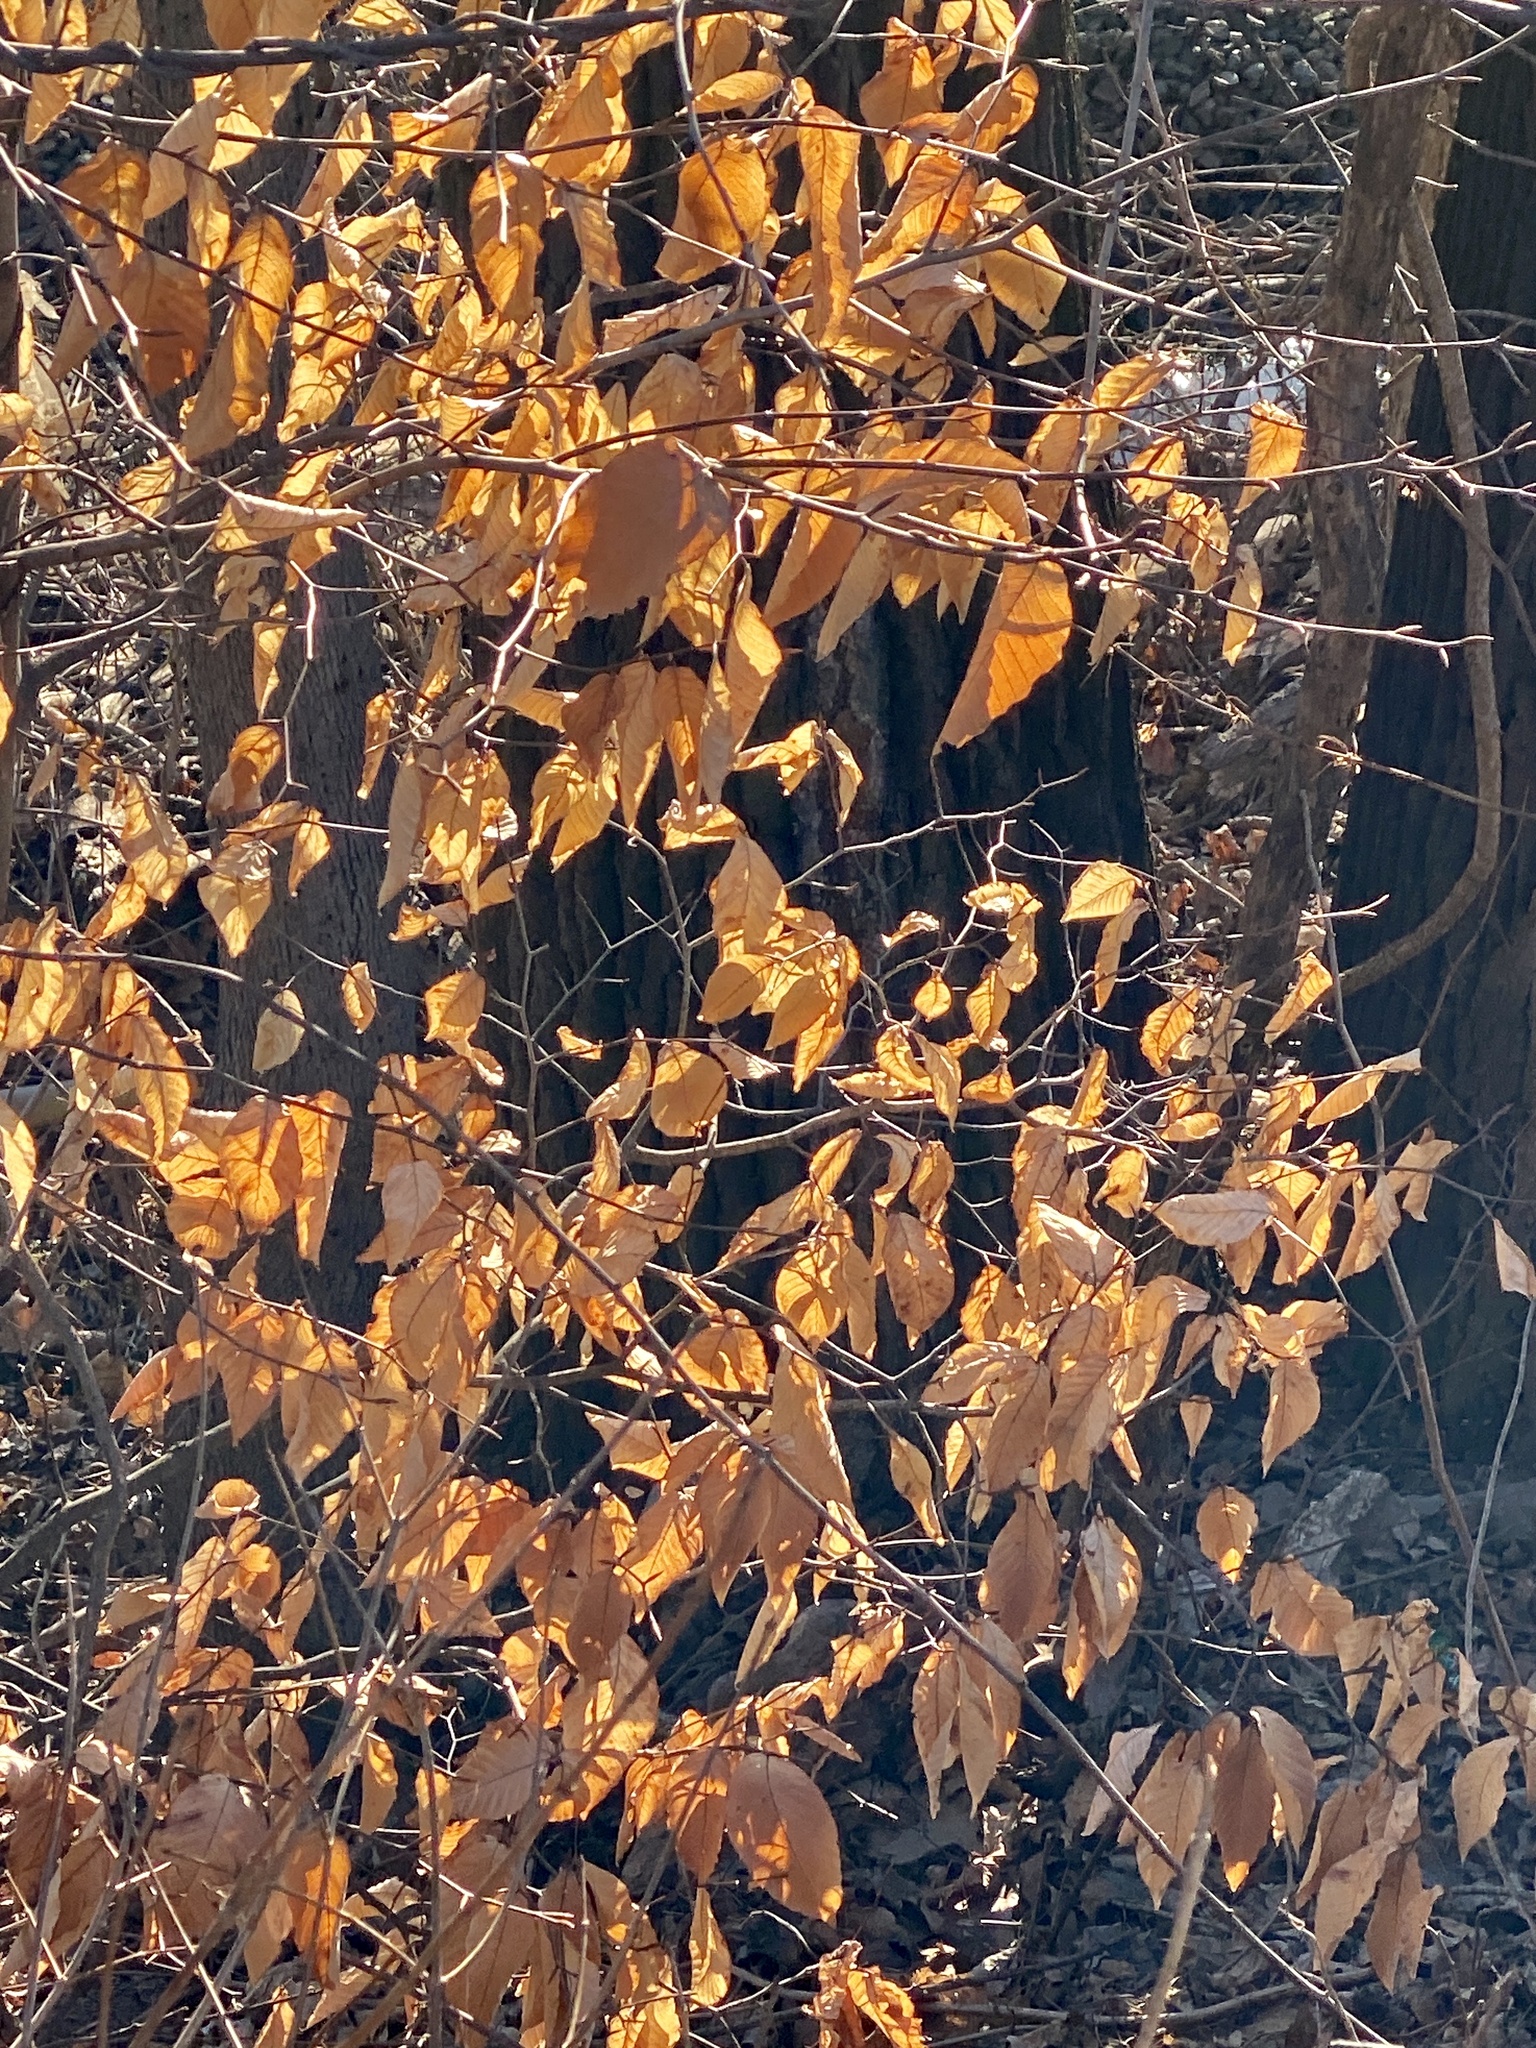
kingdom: Plantae
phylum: Tracheophyta
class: Magnoliopsida
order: Fagales
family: Fagaceae
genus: Fagus
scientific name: Fagus grandifolia
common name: American beech
